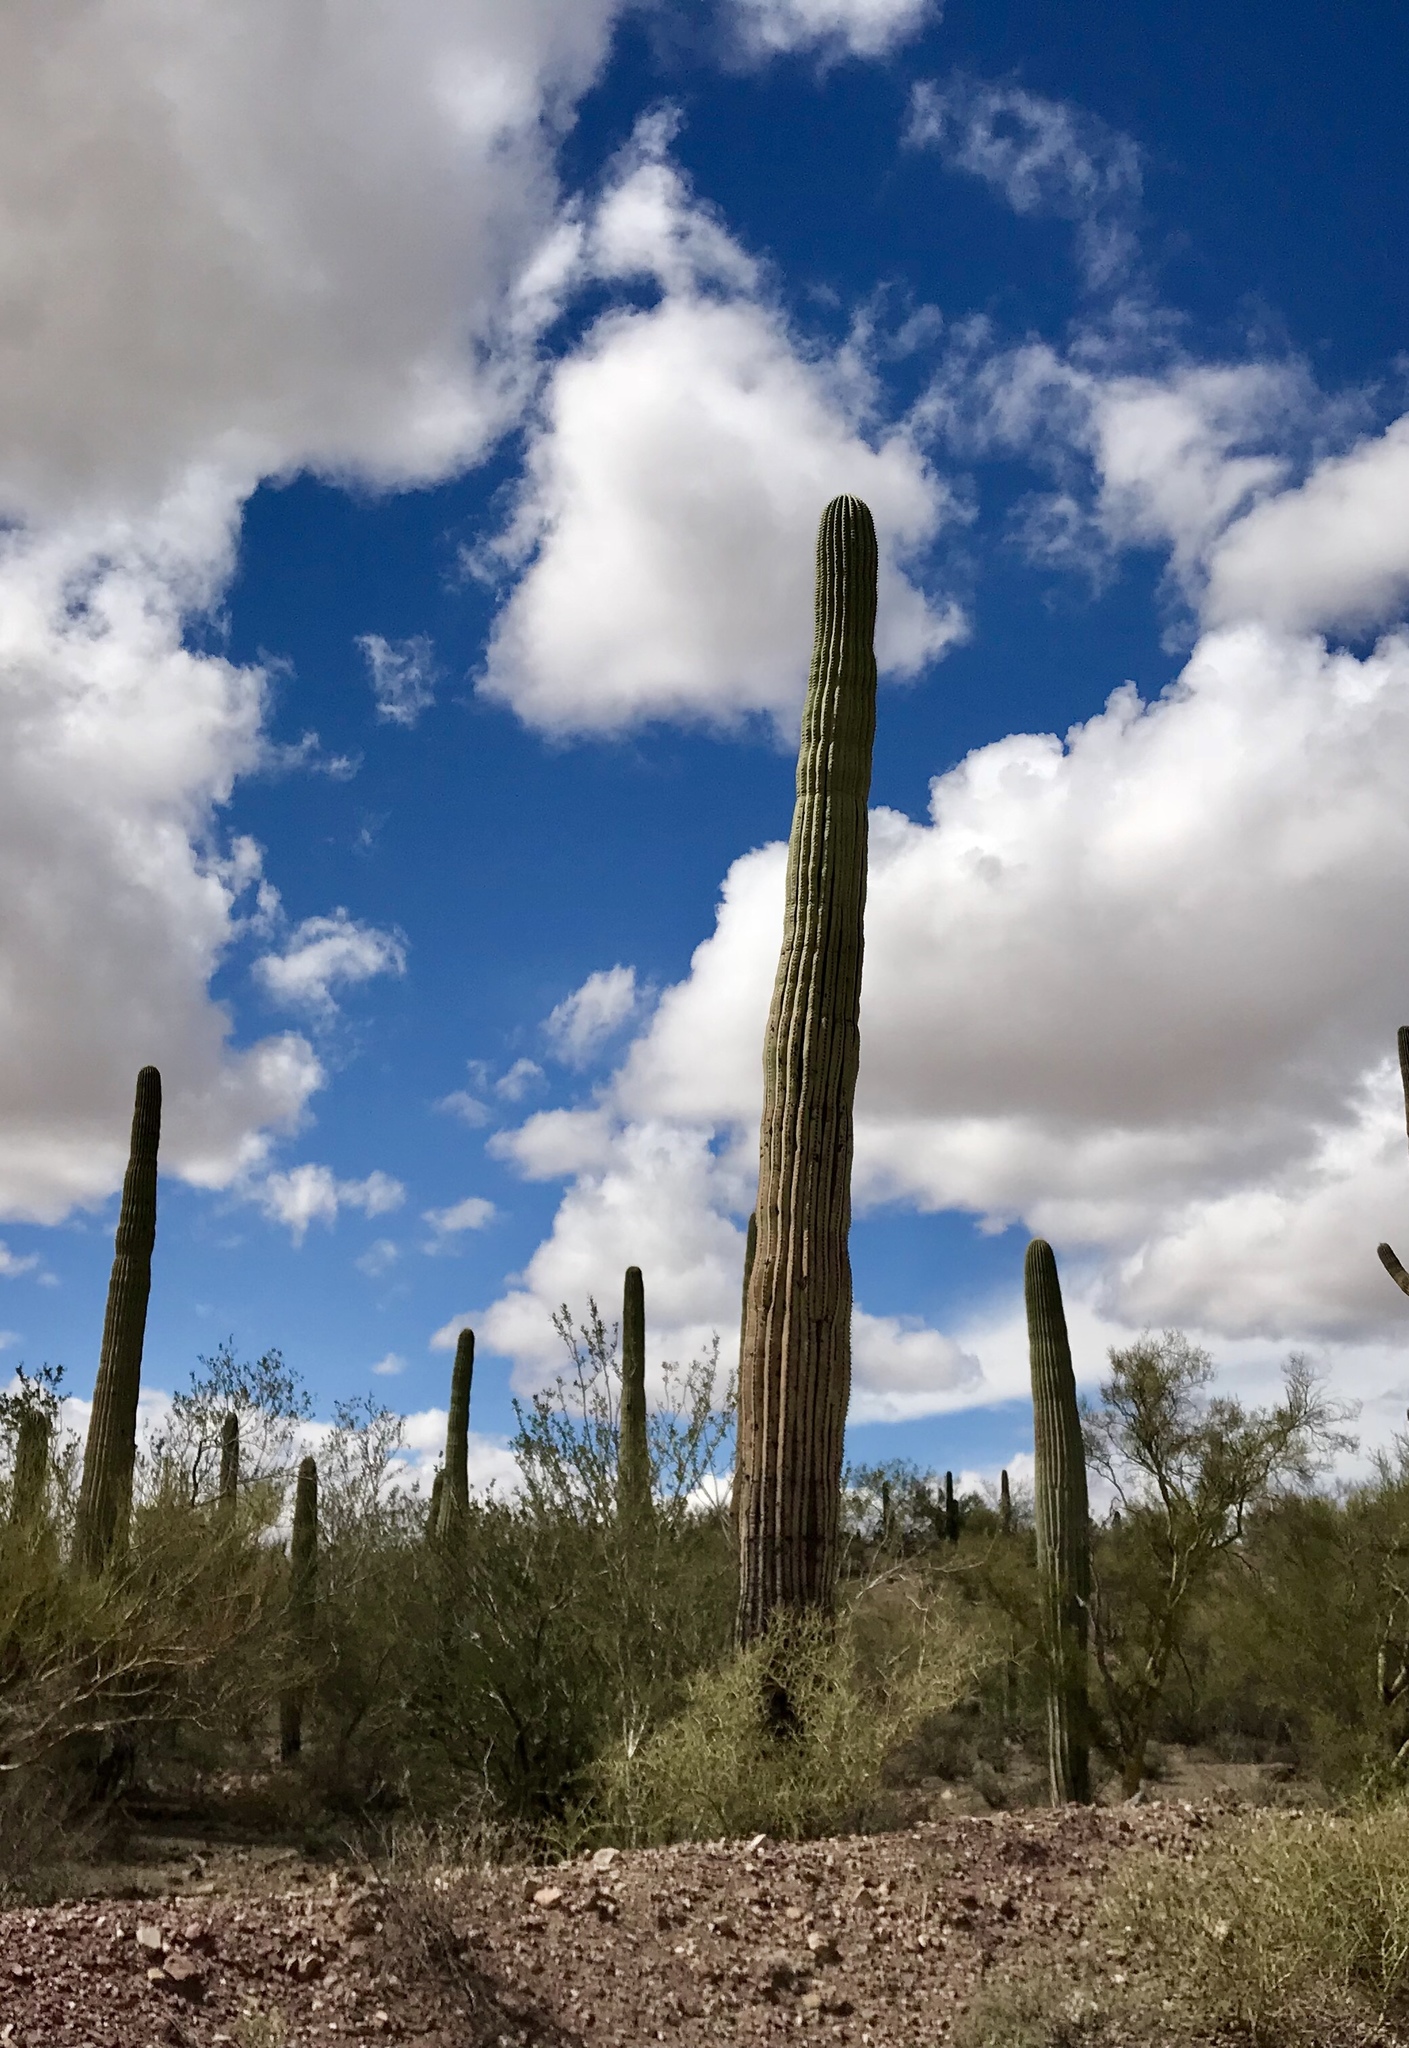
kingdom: Plantae
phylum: Tracheophyta
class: Magnoliopsida
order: Caryophyllales
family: Cactaceae
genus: Carnegiea
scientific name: Carnegiea gigantea
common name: Saguaro
